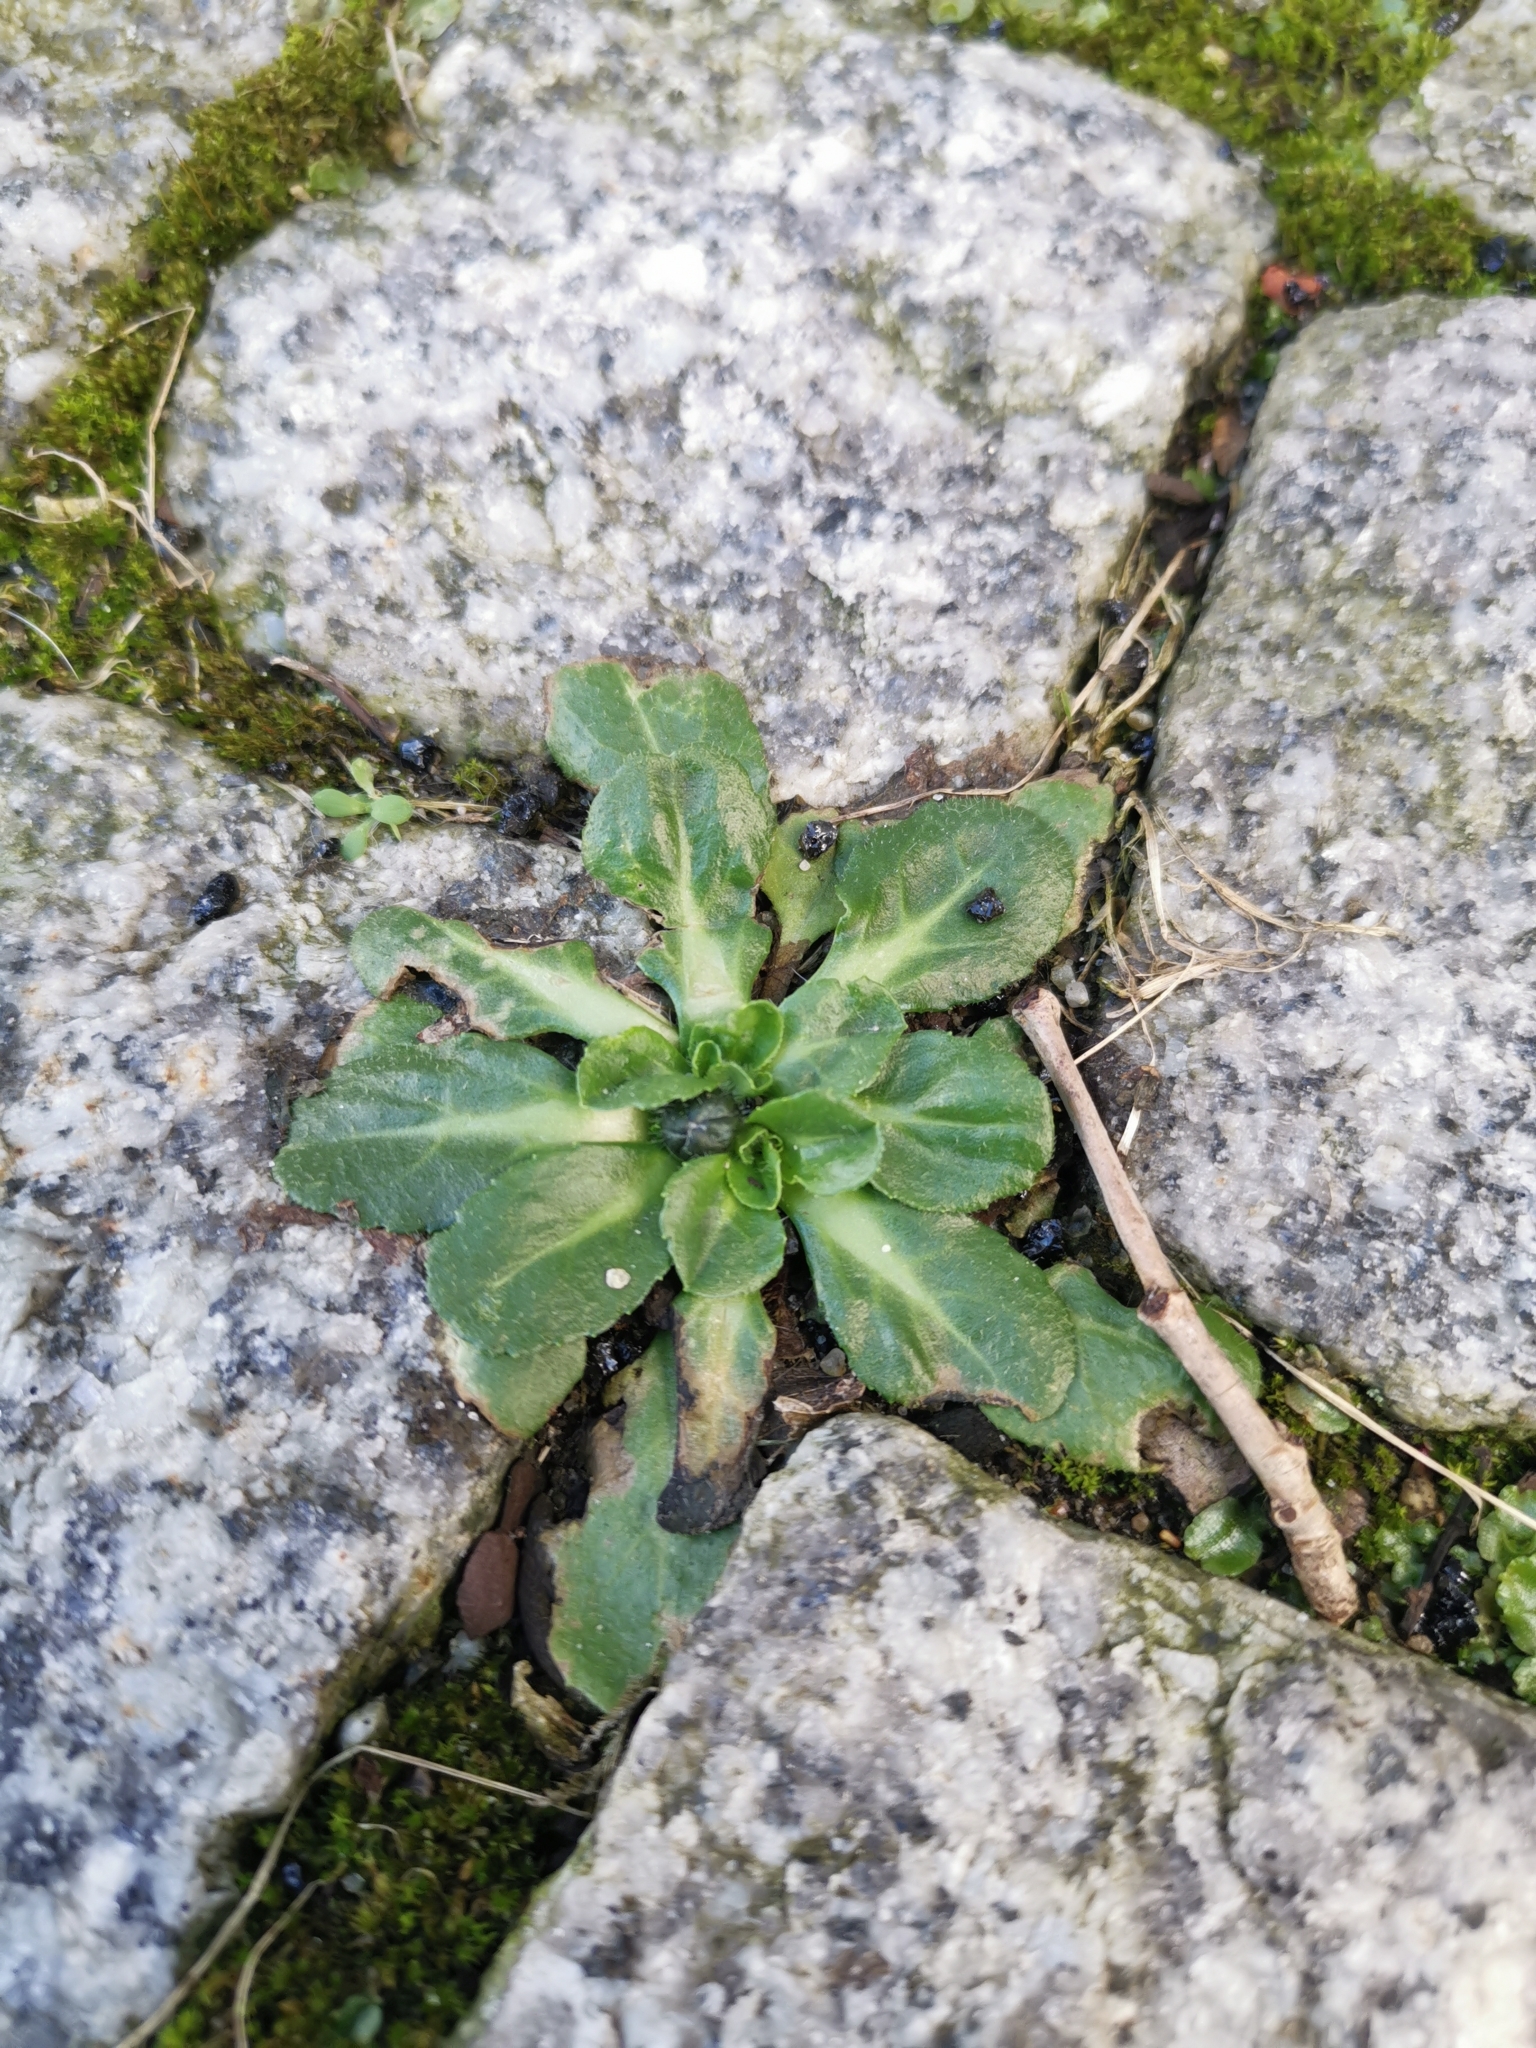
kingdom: Plantae
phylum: Tracheophyta
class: Magnoliopsida
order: Asterales
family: Asteraceae
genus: Bellis
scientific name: Bellis perennis
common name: Lawndaisy
